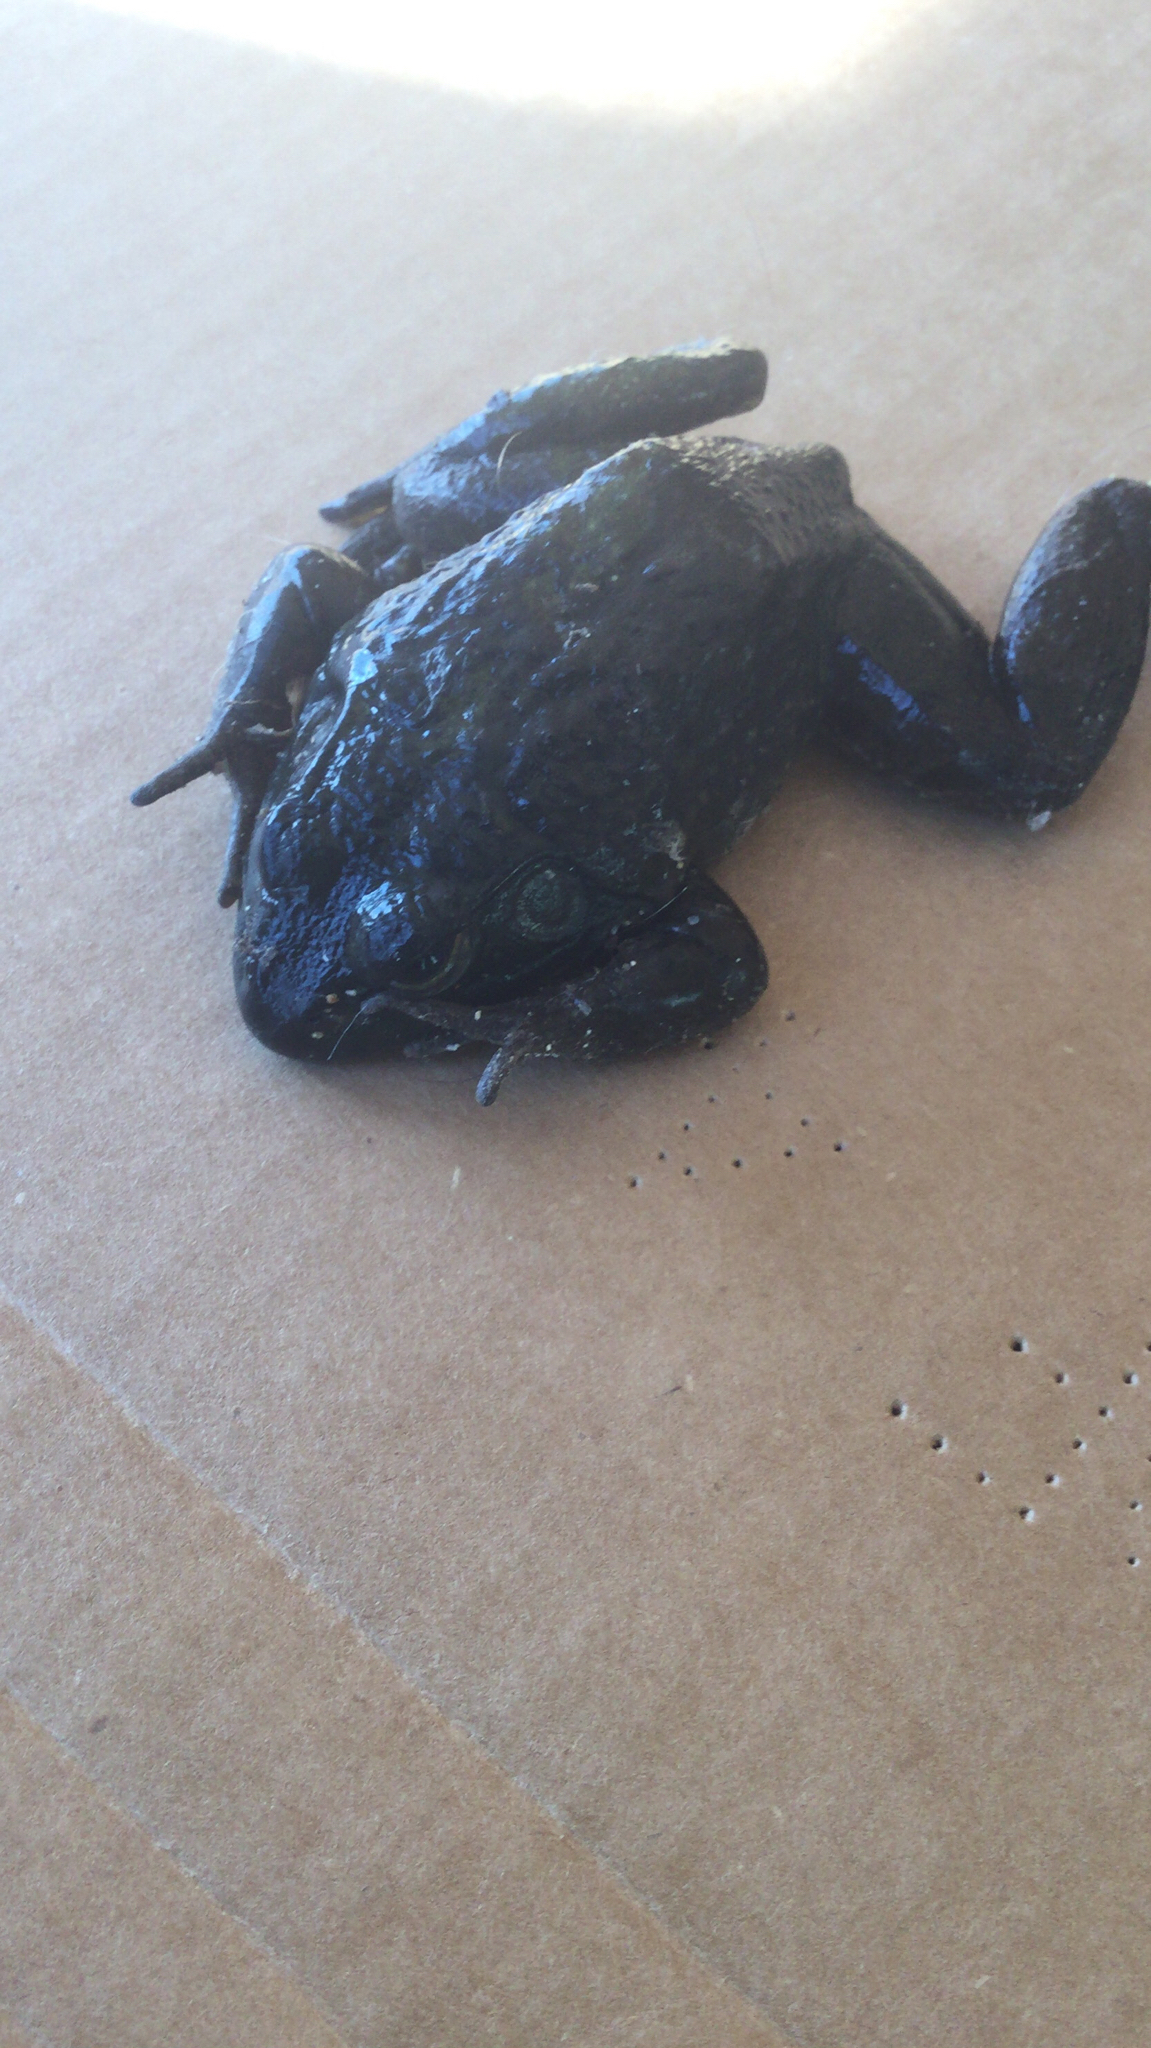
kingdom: Animalia
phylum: Chordata
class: Amphibia
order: Anura
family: Ranidae
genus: Lithobates
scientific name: Lithobates catesbeianus
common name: American bullfrog
